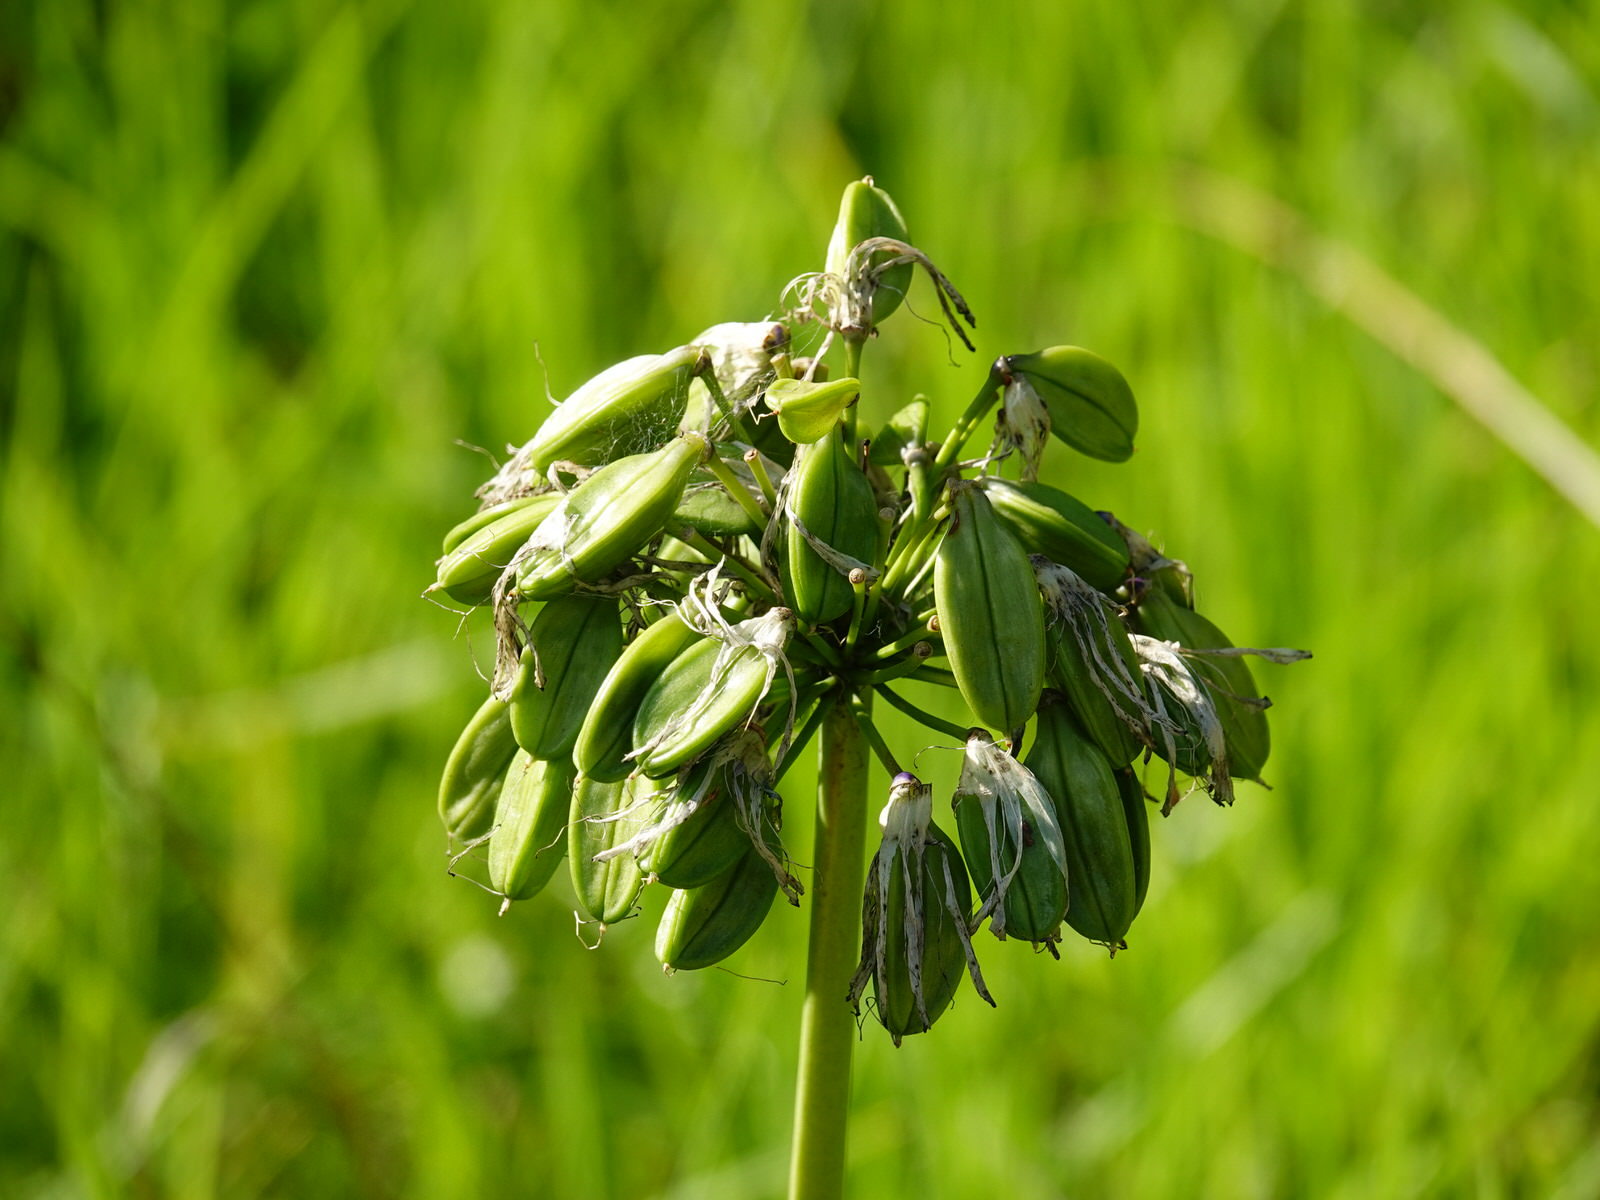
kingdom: Plantae
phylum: Tracheophyta
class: Liliopsida
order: Asparagales
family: Amaryllidaceae
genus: Agapanthus
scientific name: Agapanthus praecox
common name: African-lily
